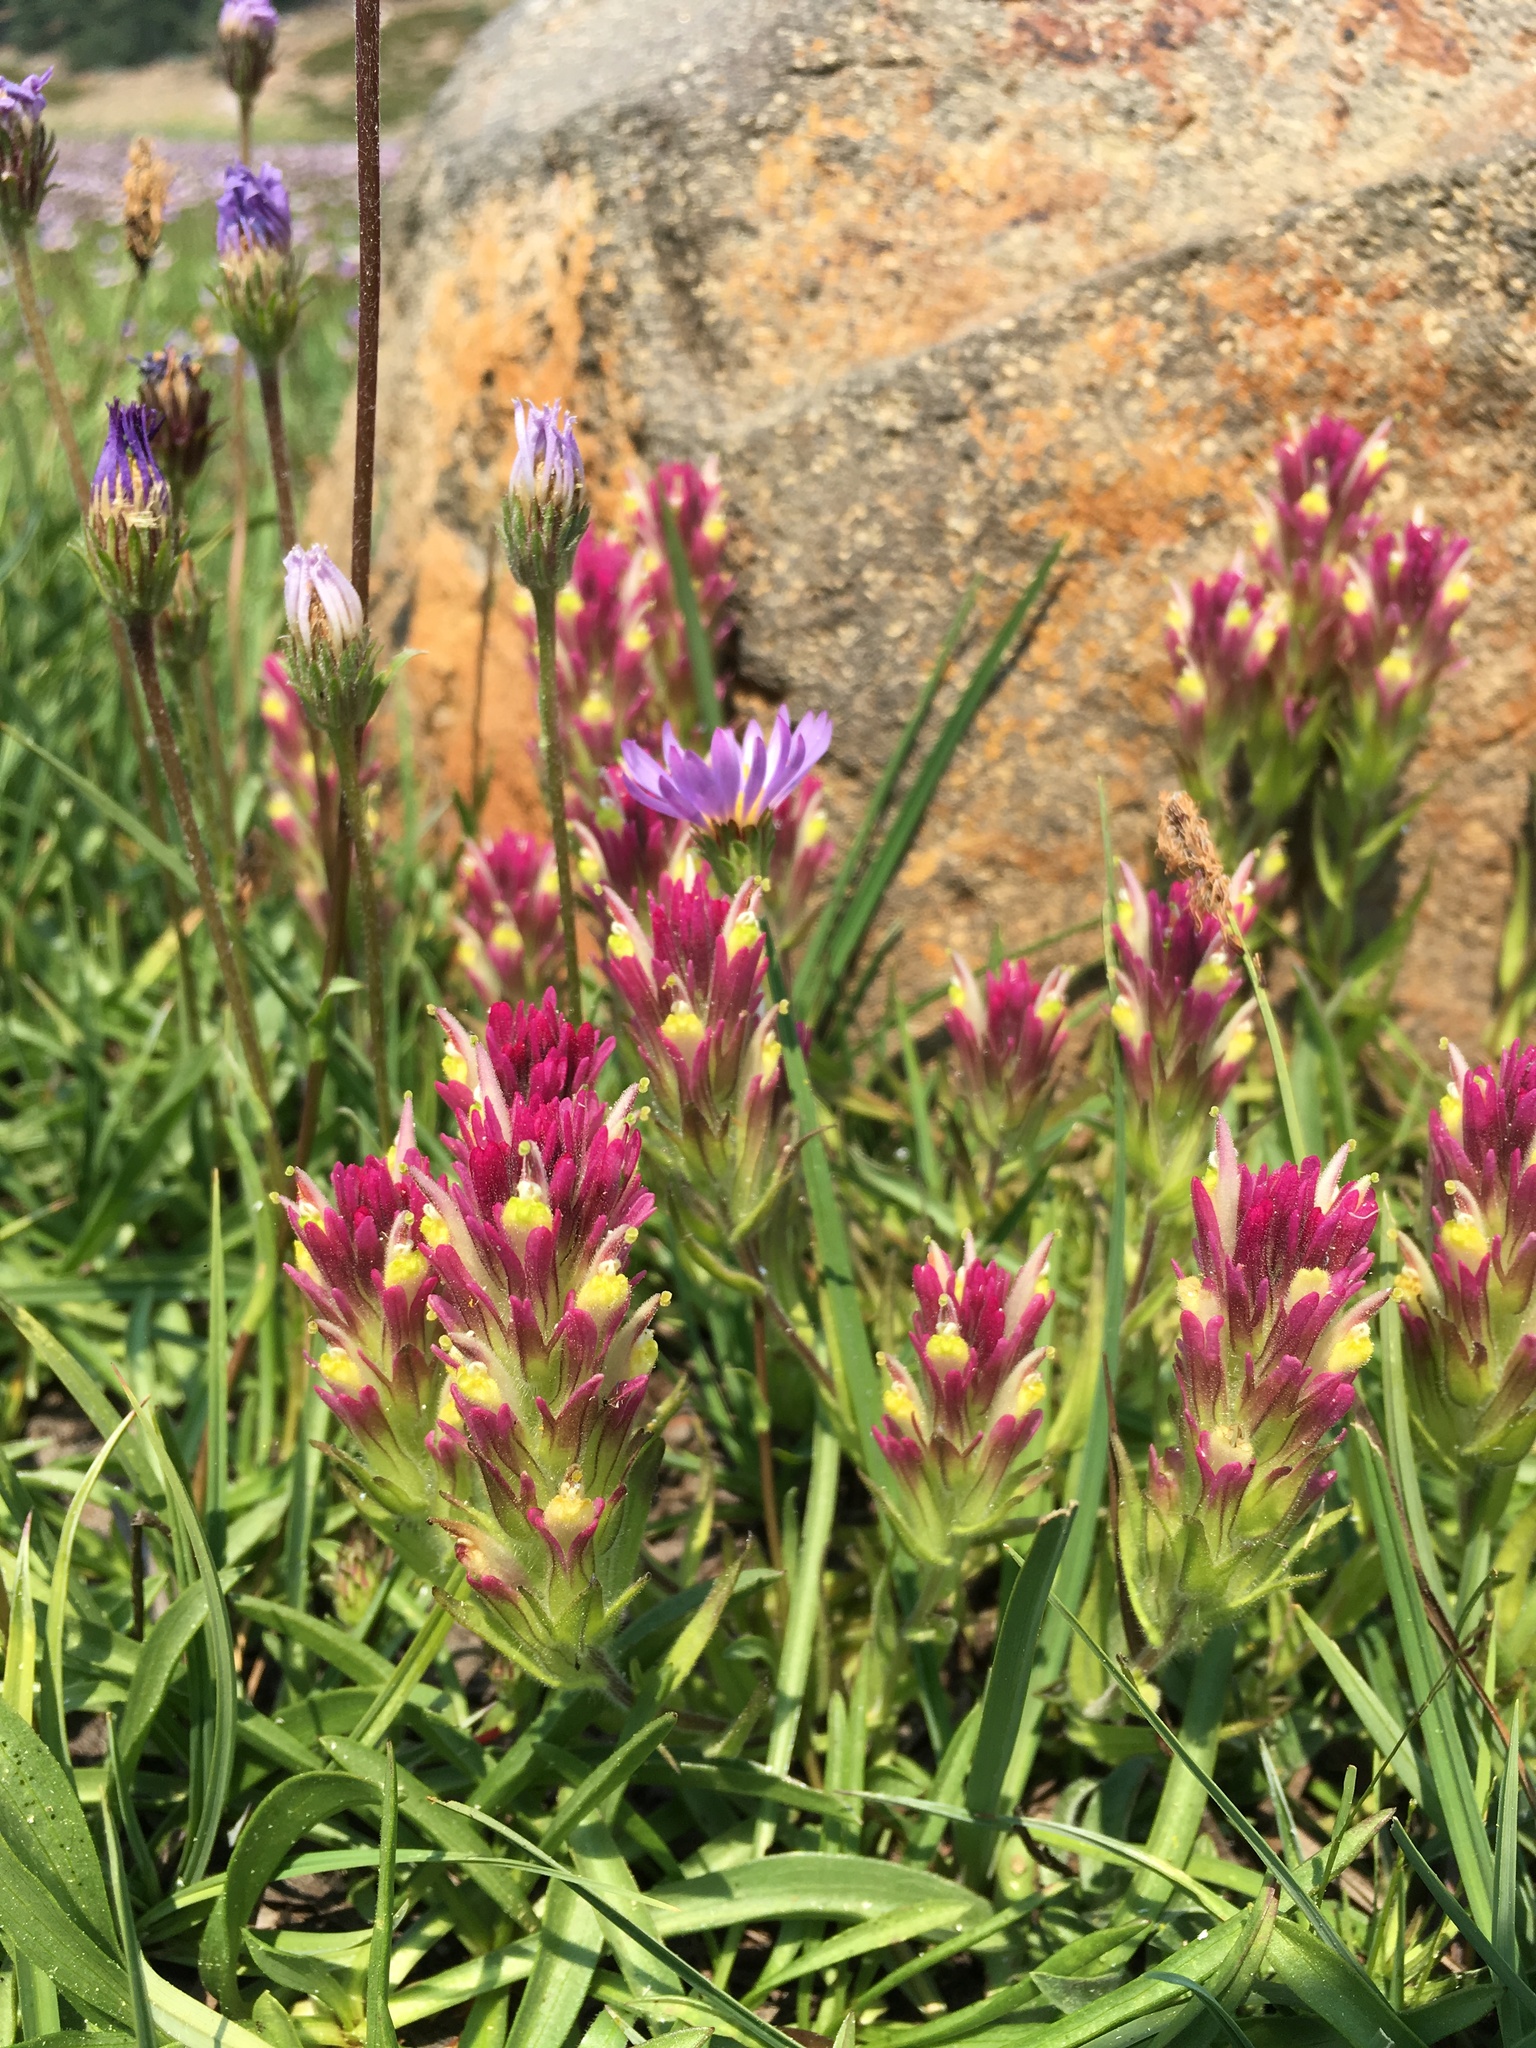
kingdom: Plantae
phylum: Tracheophyta
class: Magnoliopsida
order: Lamiales
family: Orobanchaceae
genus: Castilleja
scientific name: Castilleja lassenensis
